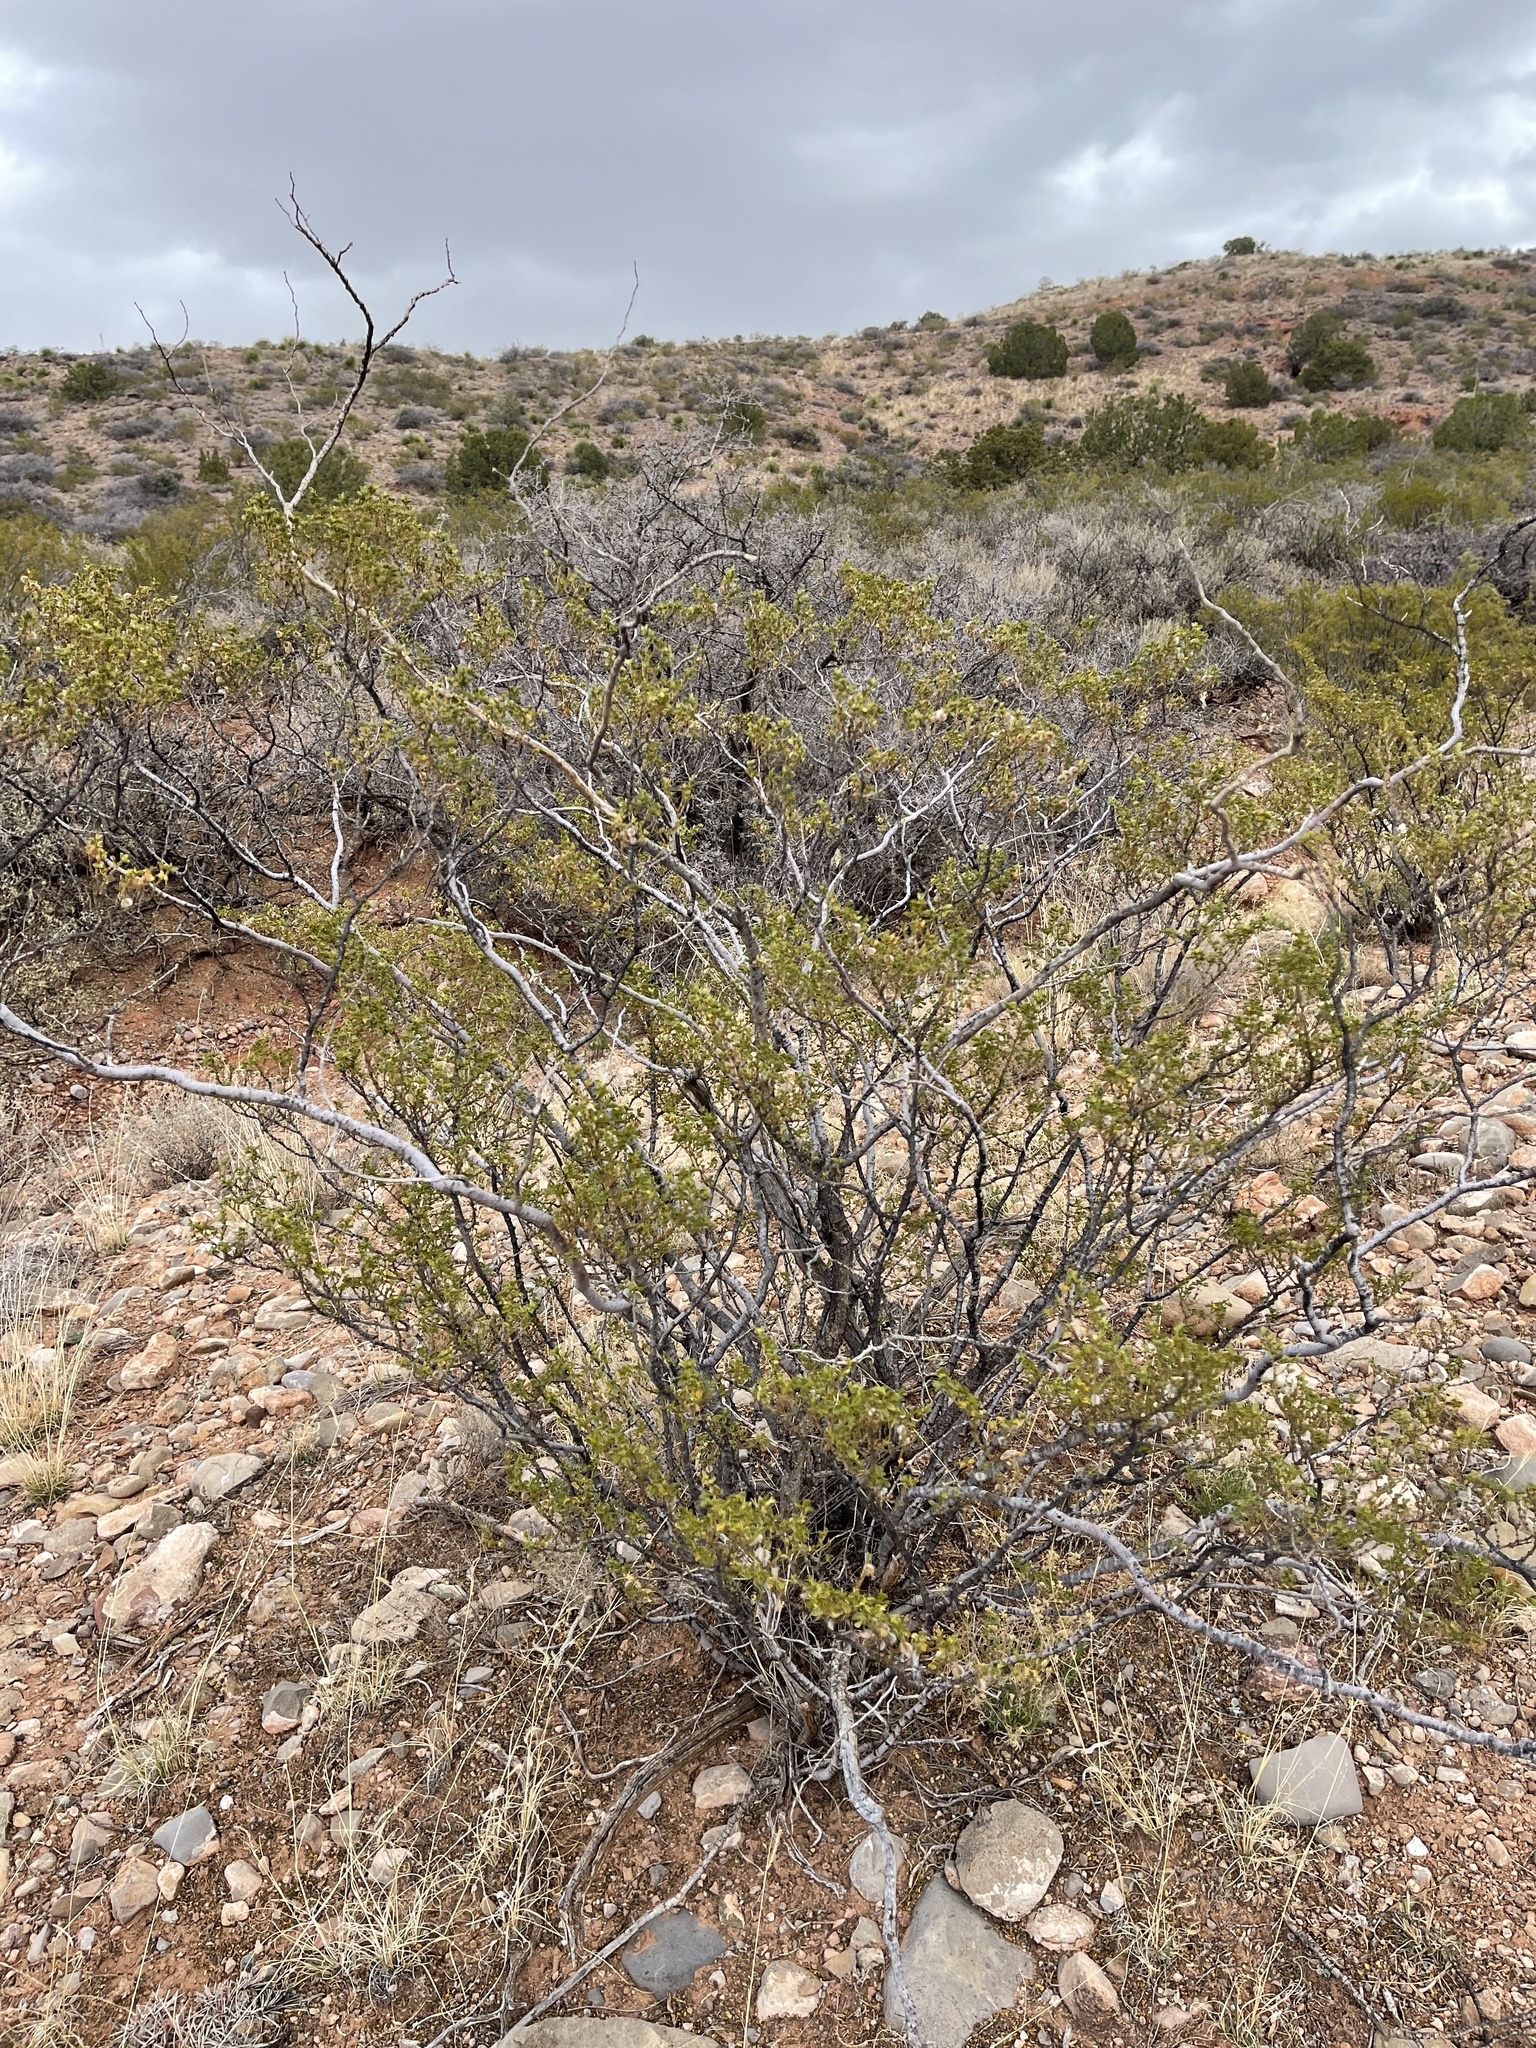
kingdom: Plantae
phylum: Tracheophyta
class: Magnoliopsida
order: Zygophyllales
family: Zygophyllaceae
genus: Larrea
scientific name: Larrea tridentata
